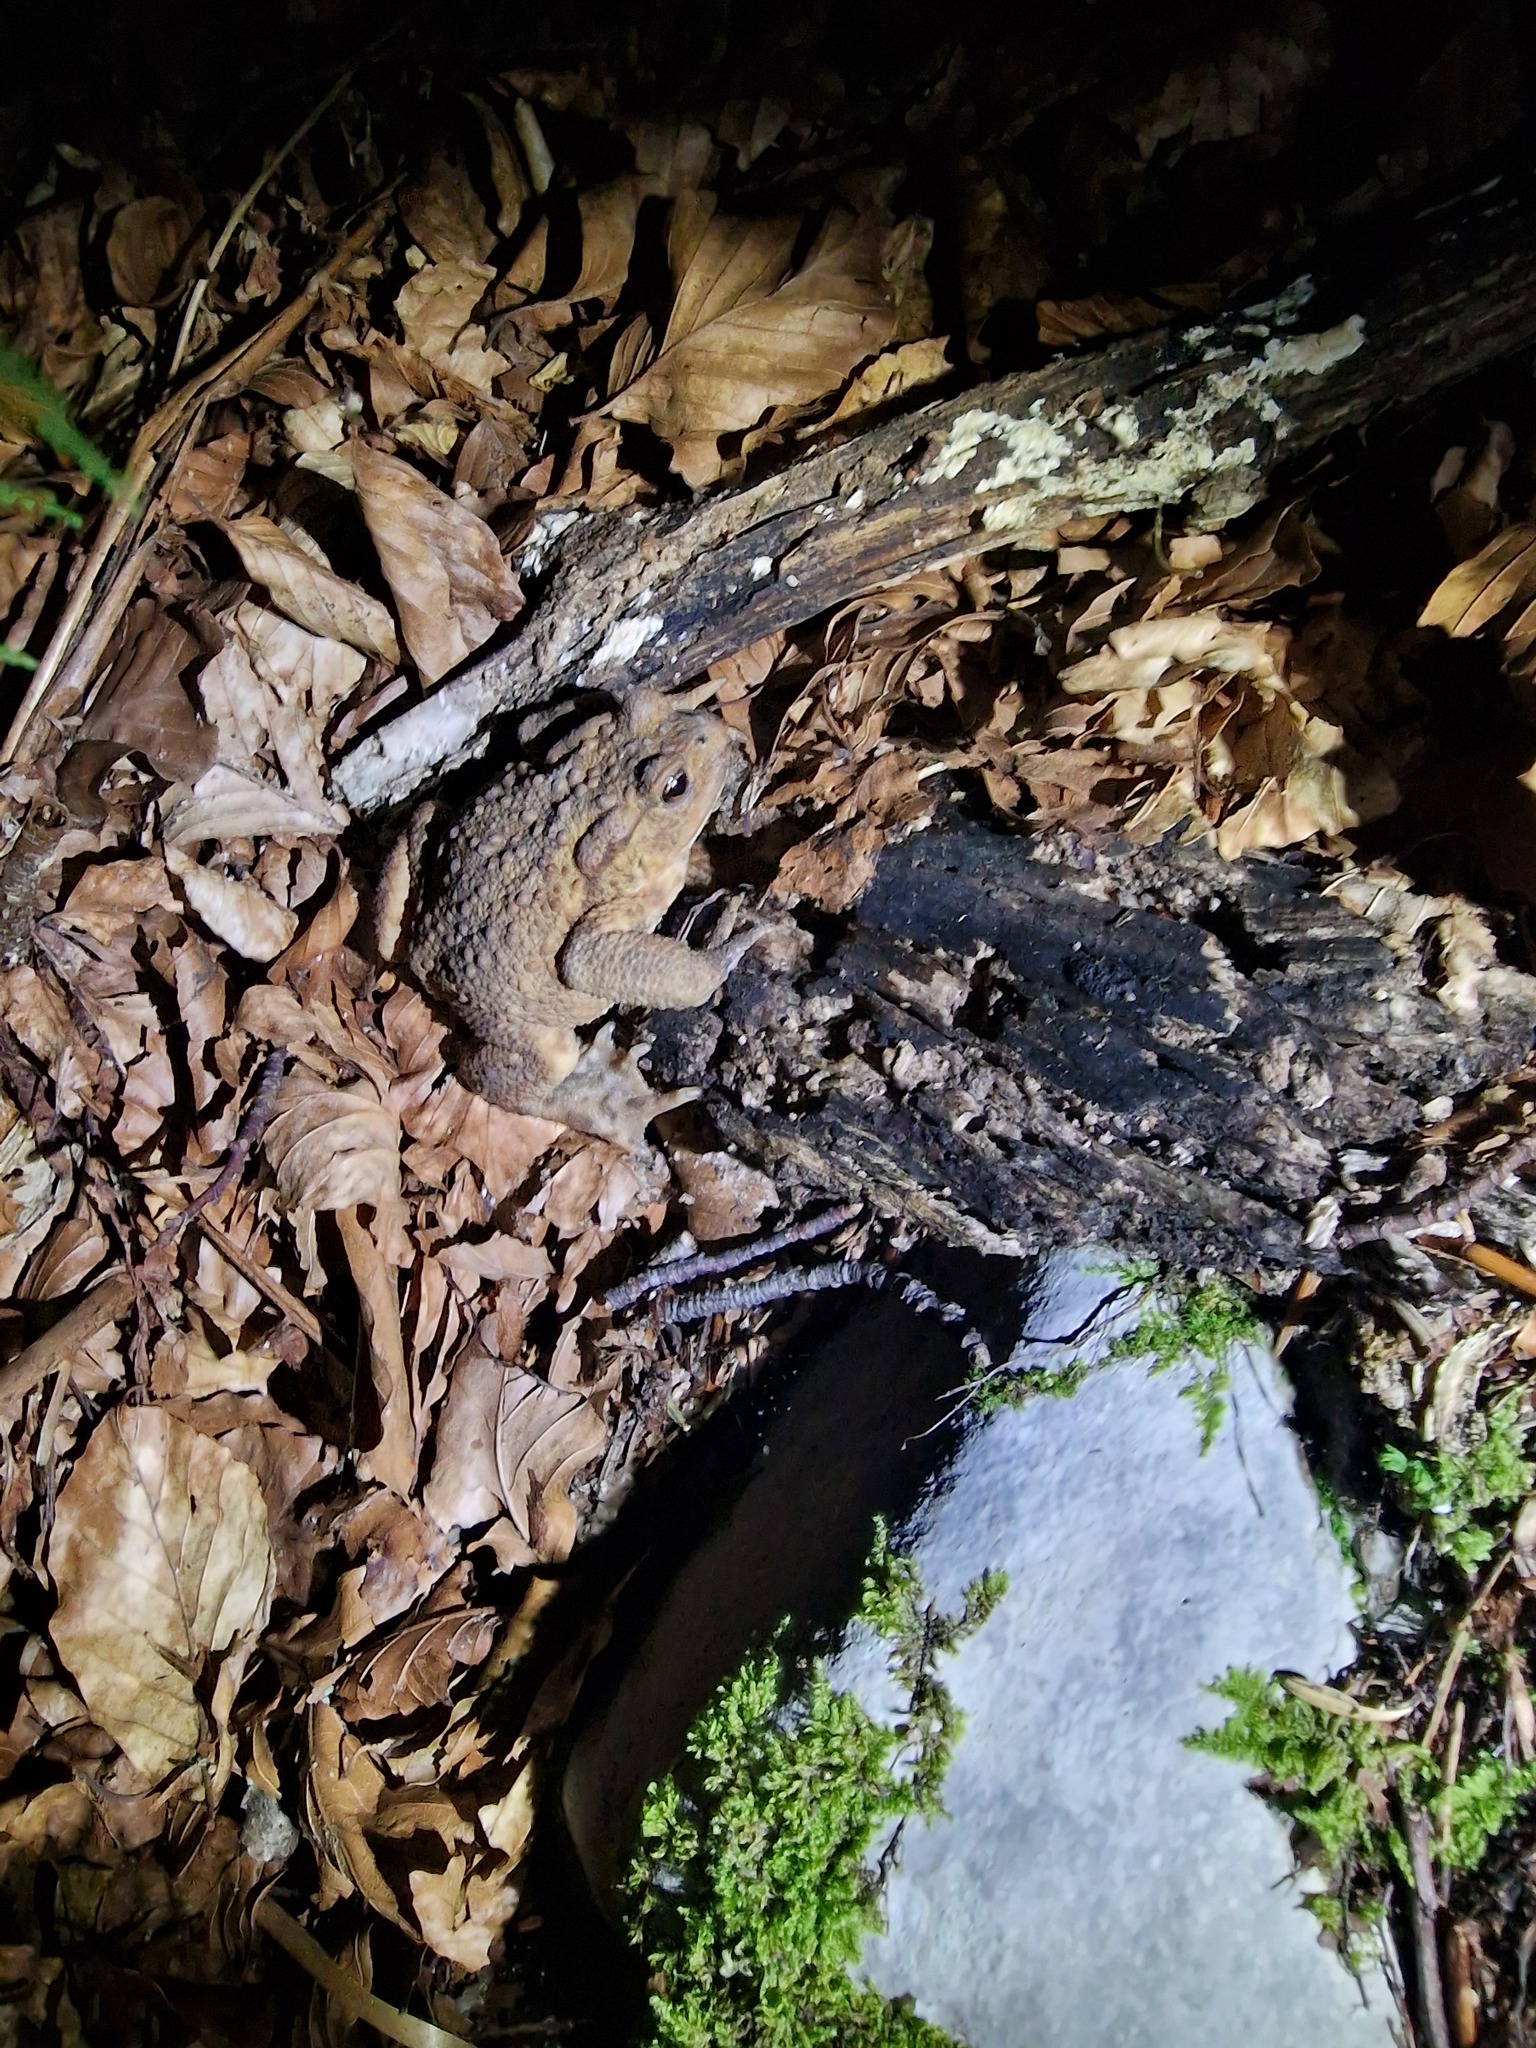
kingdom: Animalia
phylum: Chordata
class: Amphibia
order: Anura
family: Bufonidae
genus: Bufo
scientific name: Bufo bufo
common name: Common toad
